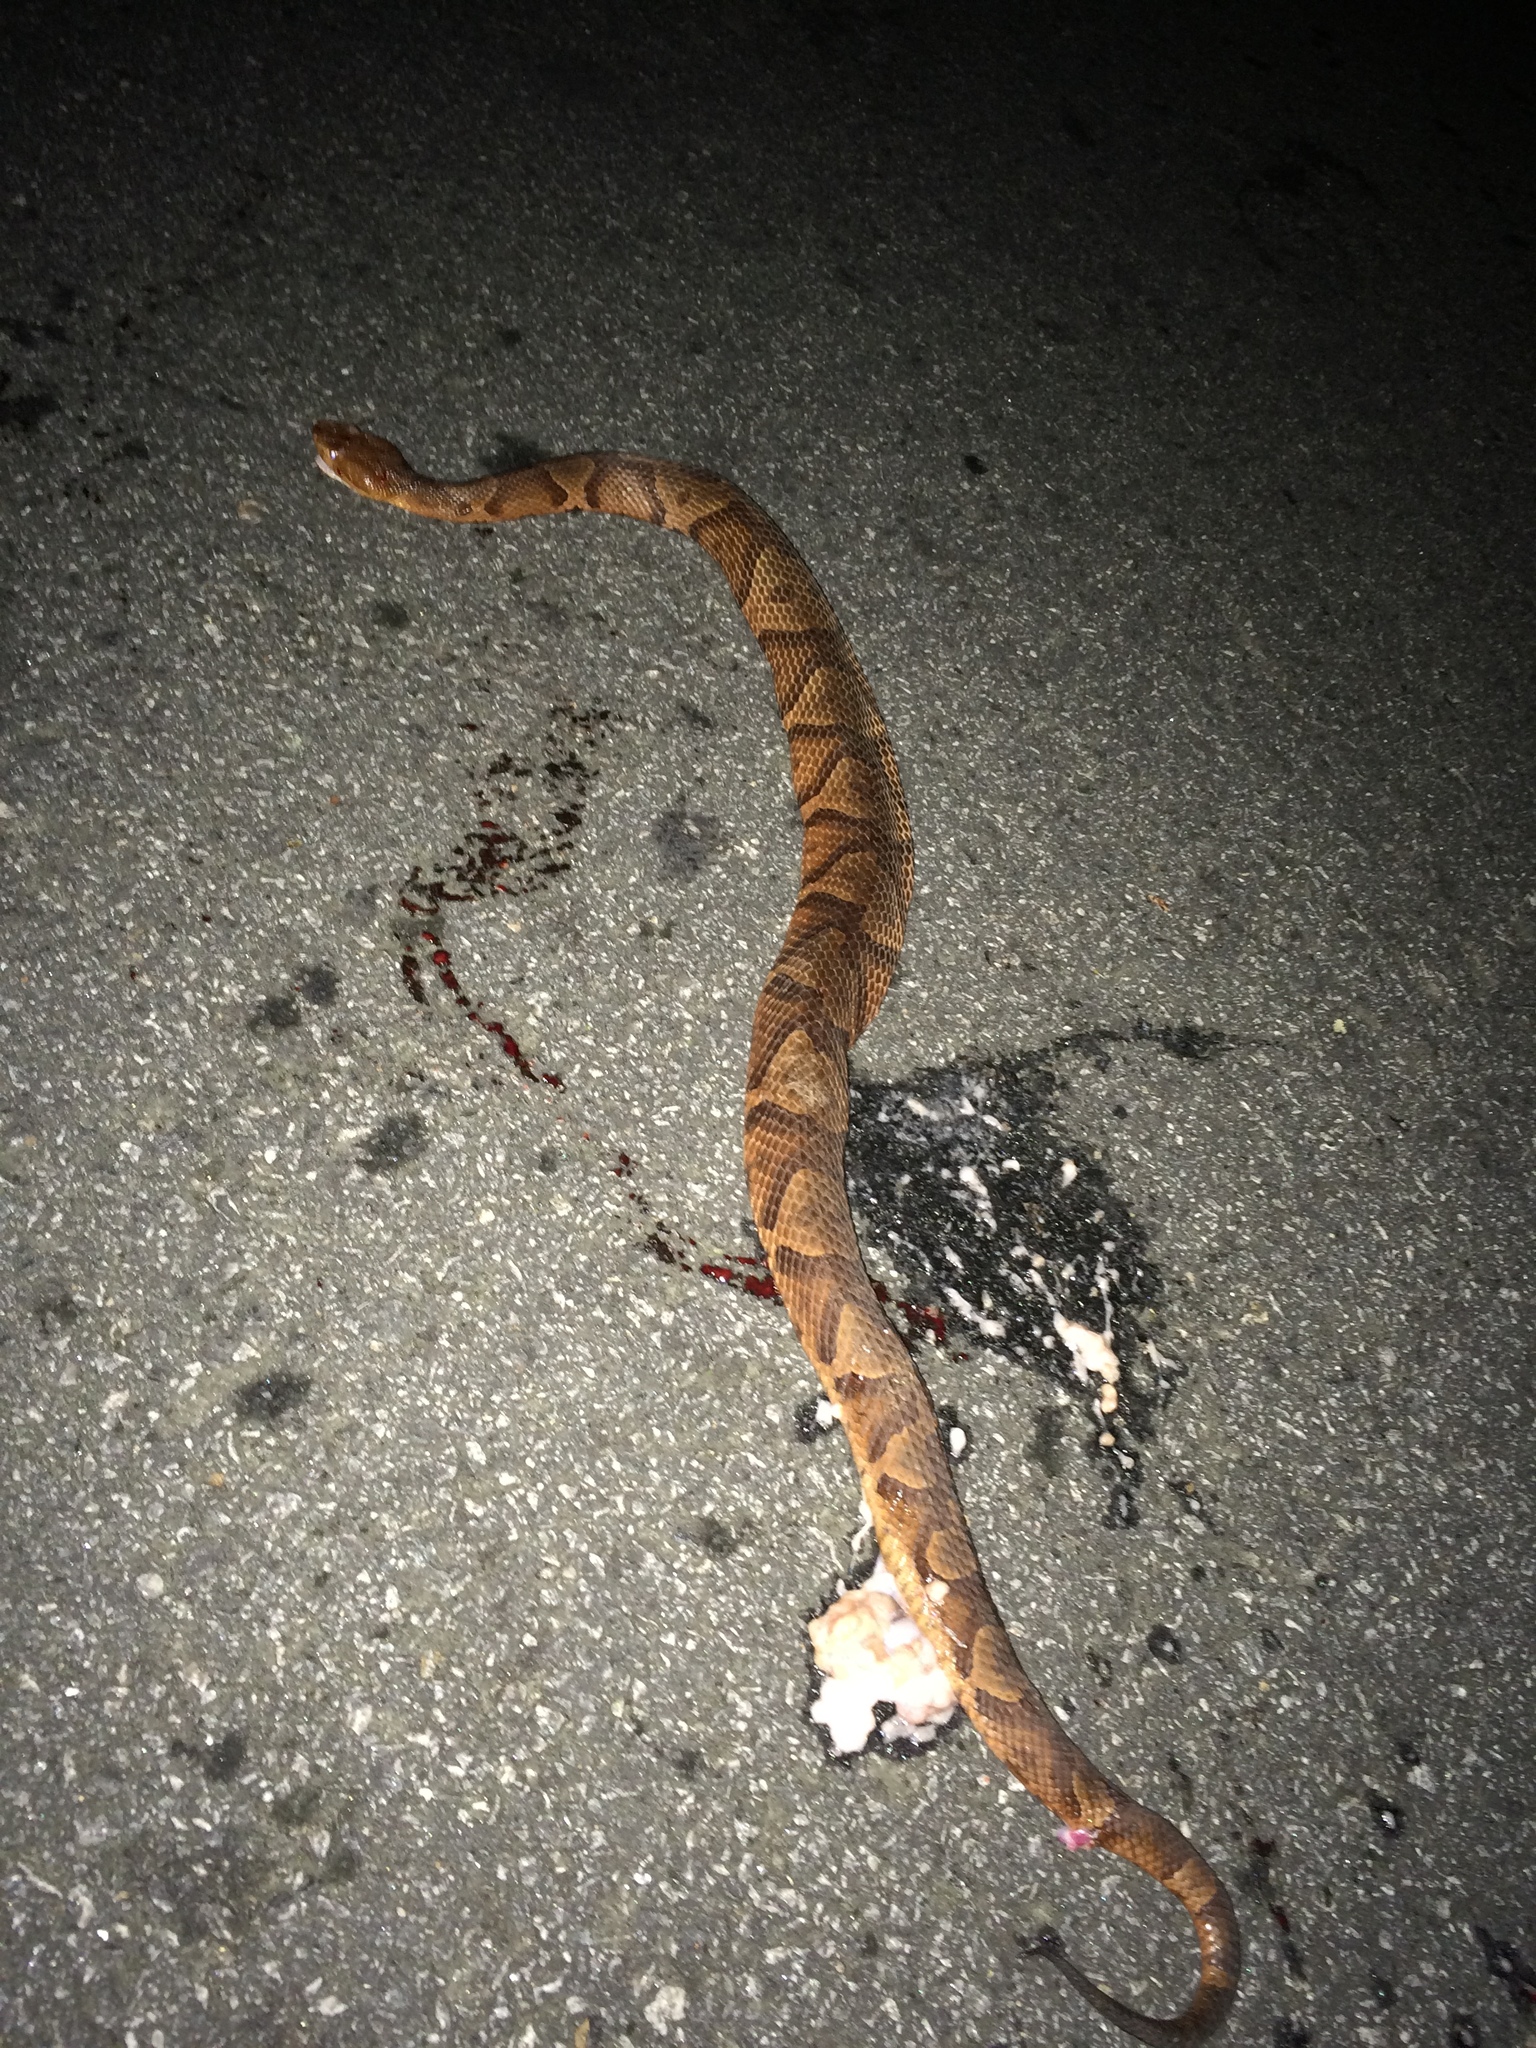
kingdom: Animalia
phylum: Chordata
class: Squamata
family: Viperidae
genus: Agkistrodon
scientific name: Agkistrodon contortrix
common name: Northern copperhead
